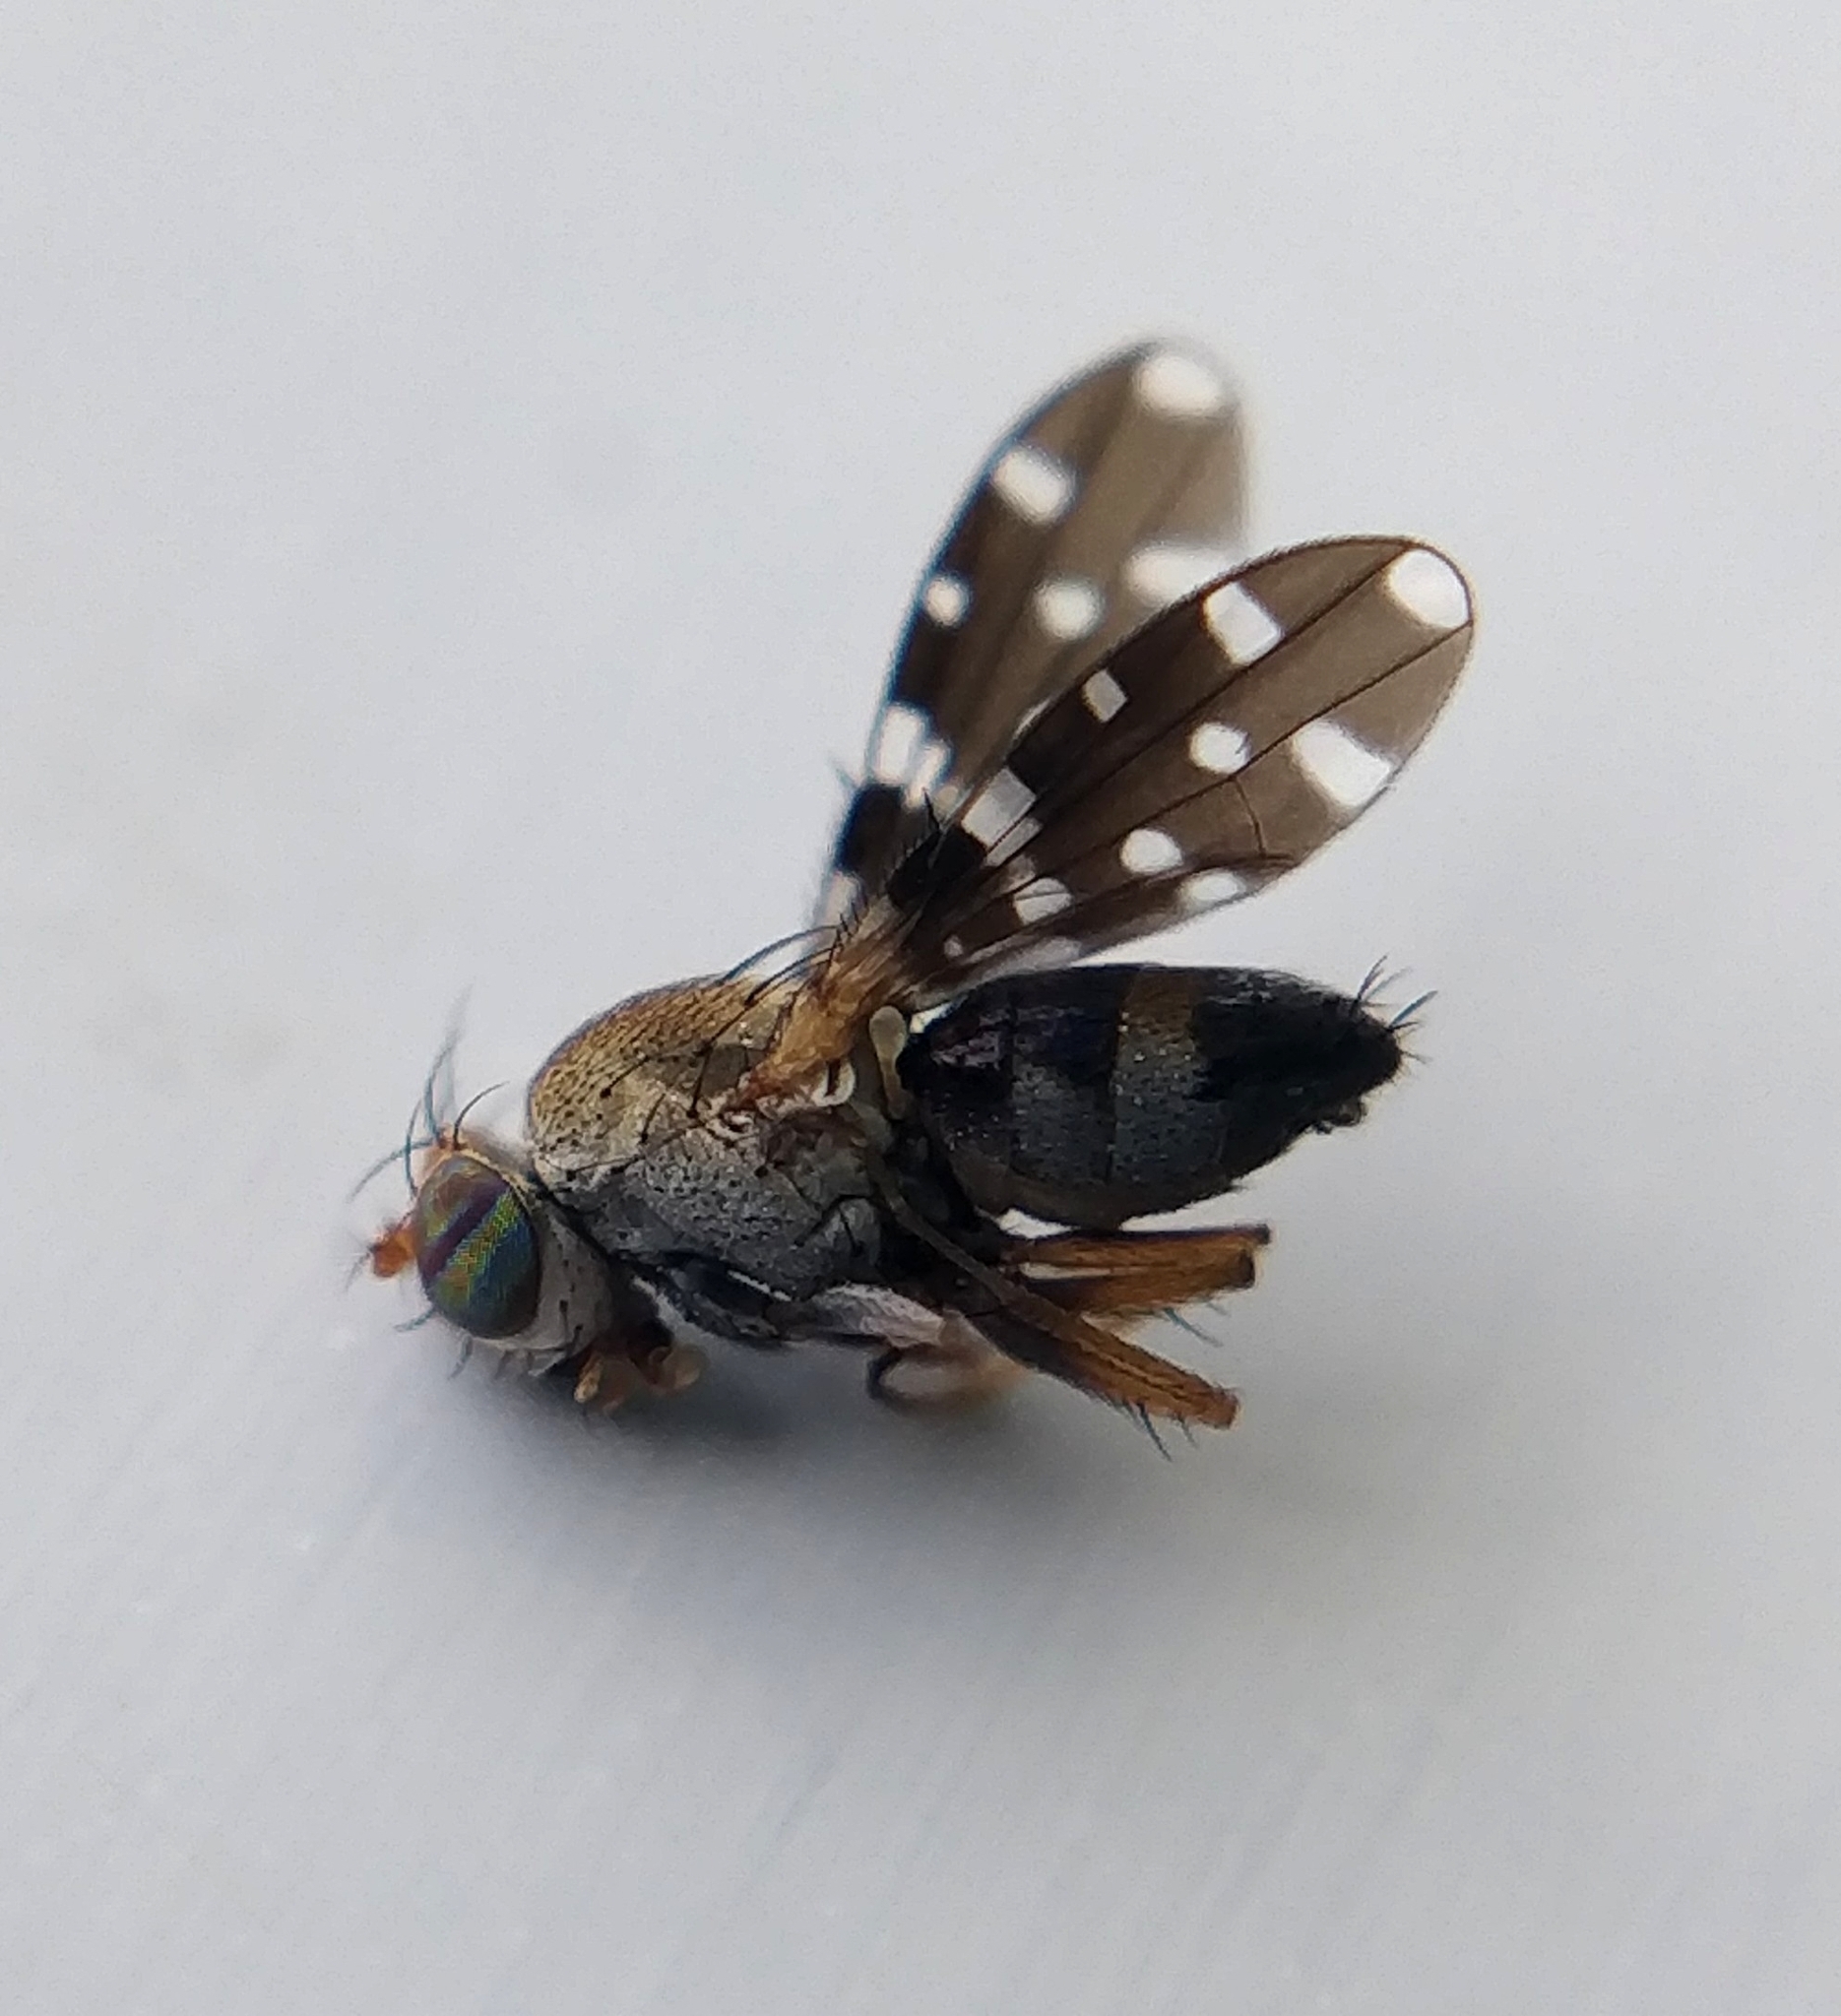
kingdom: Animalia
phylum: Arthropoda
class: Insecta
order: Diptera
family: Ephydridae
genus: Actocetor
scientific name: Actocetor indicus
